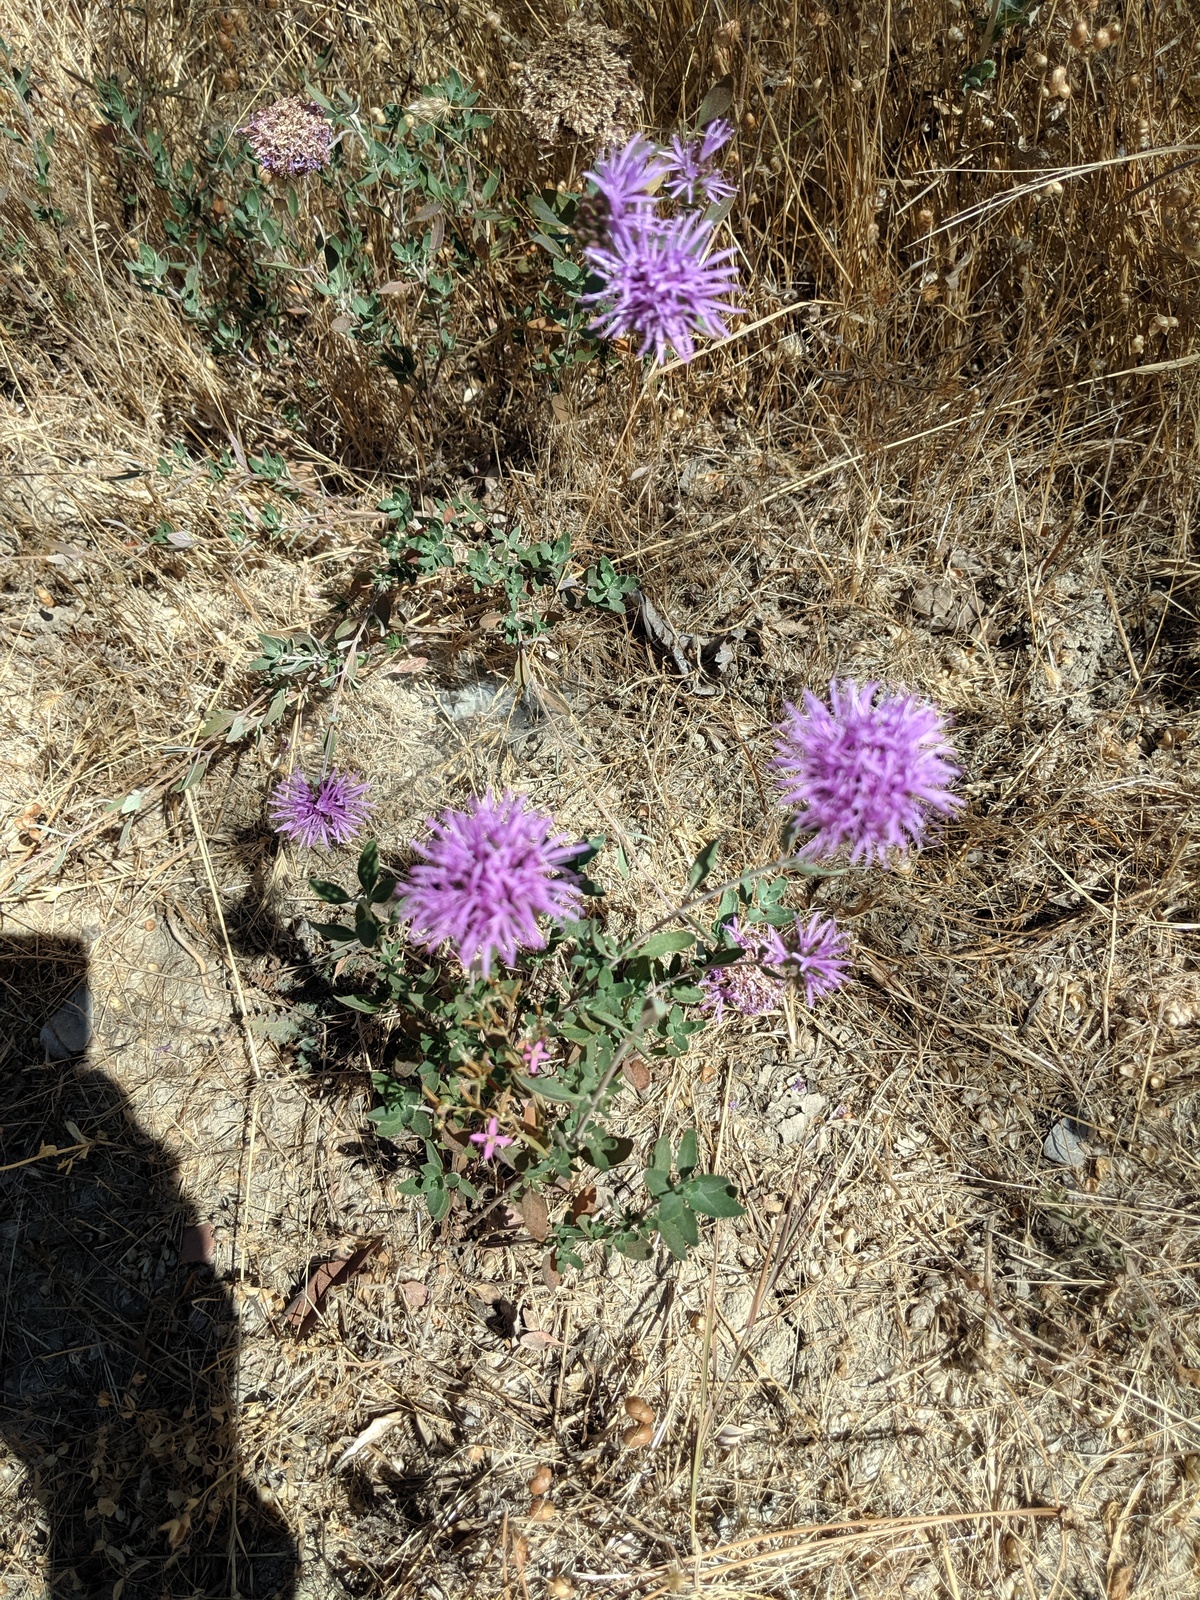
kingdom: Plantae
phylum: Tracheophyta
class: Magnoliopsida
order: Lamiales
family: Lamiaceae
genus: Monardella
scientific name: Monardella odoratissima
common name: Pacific monardella
